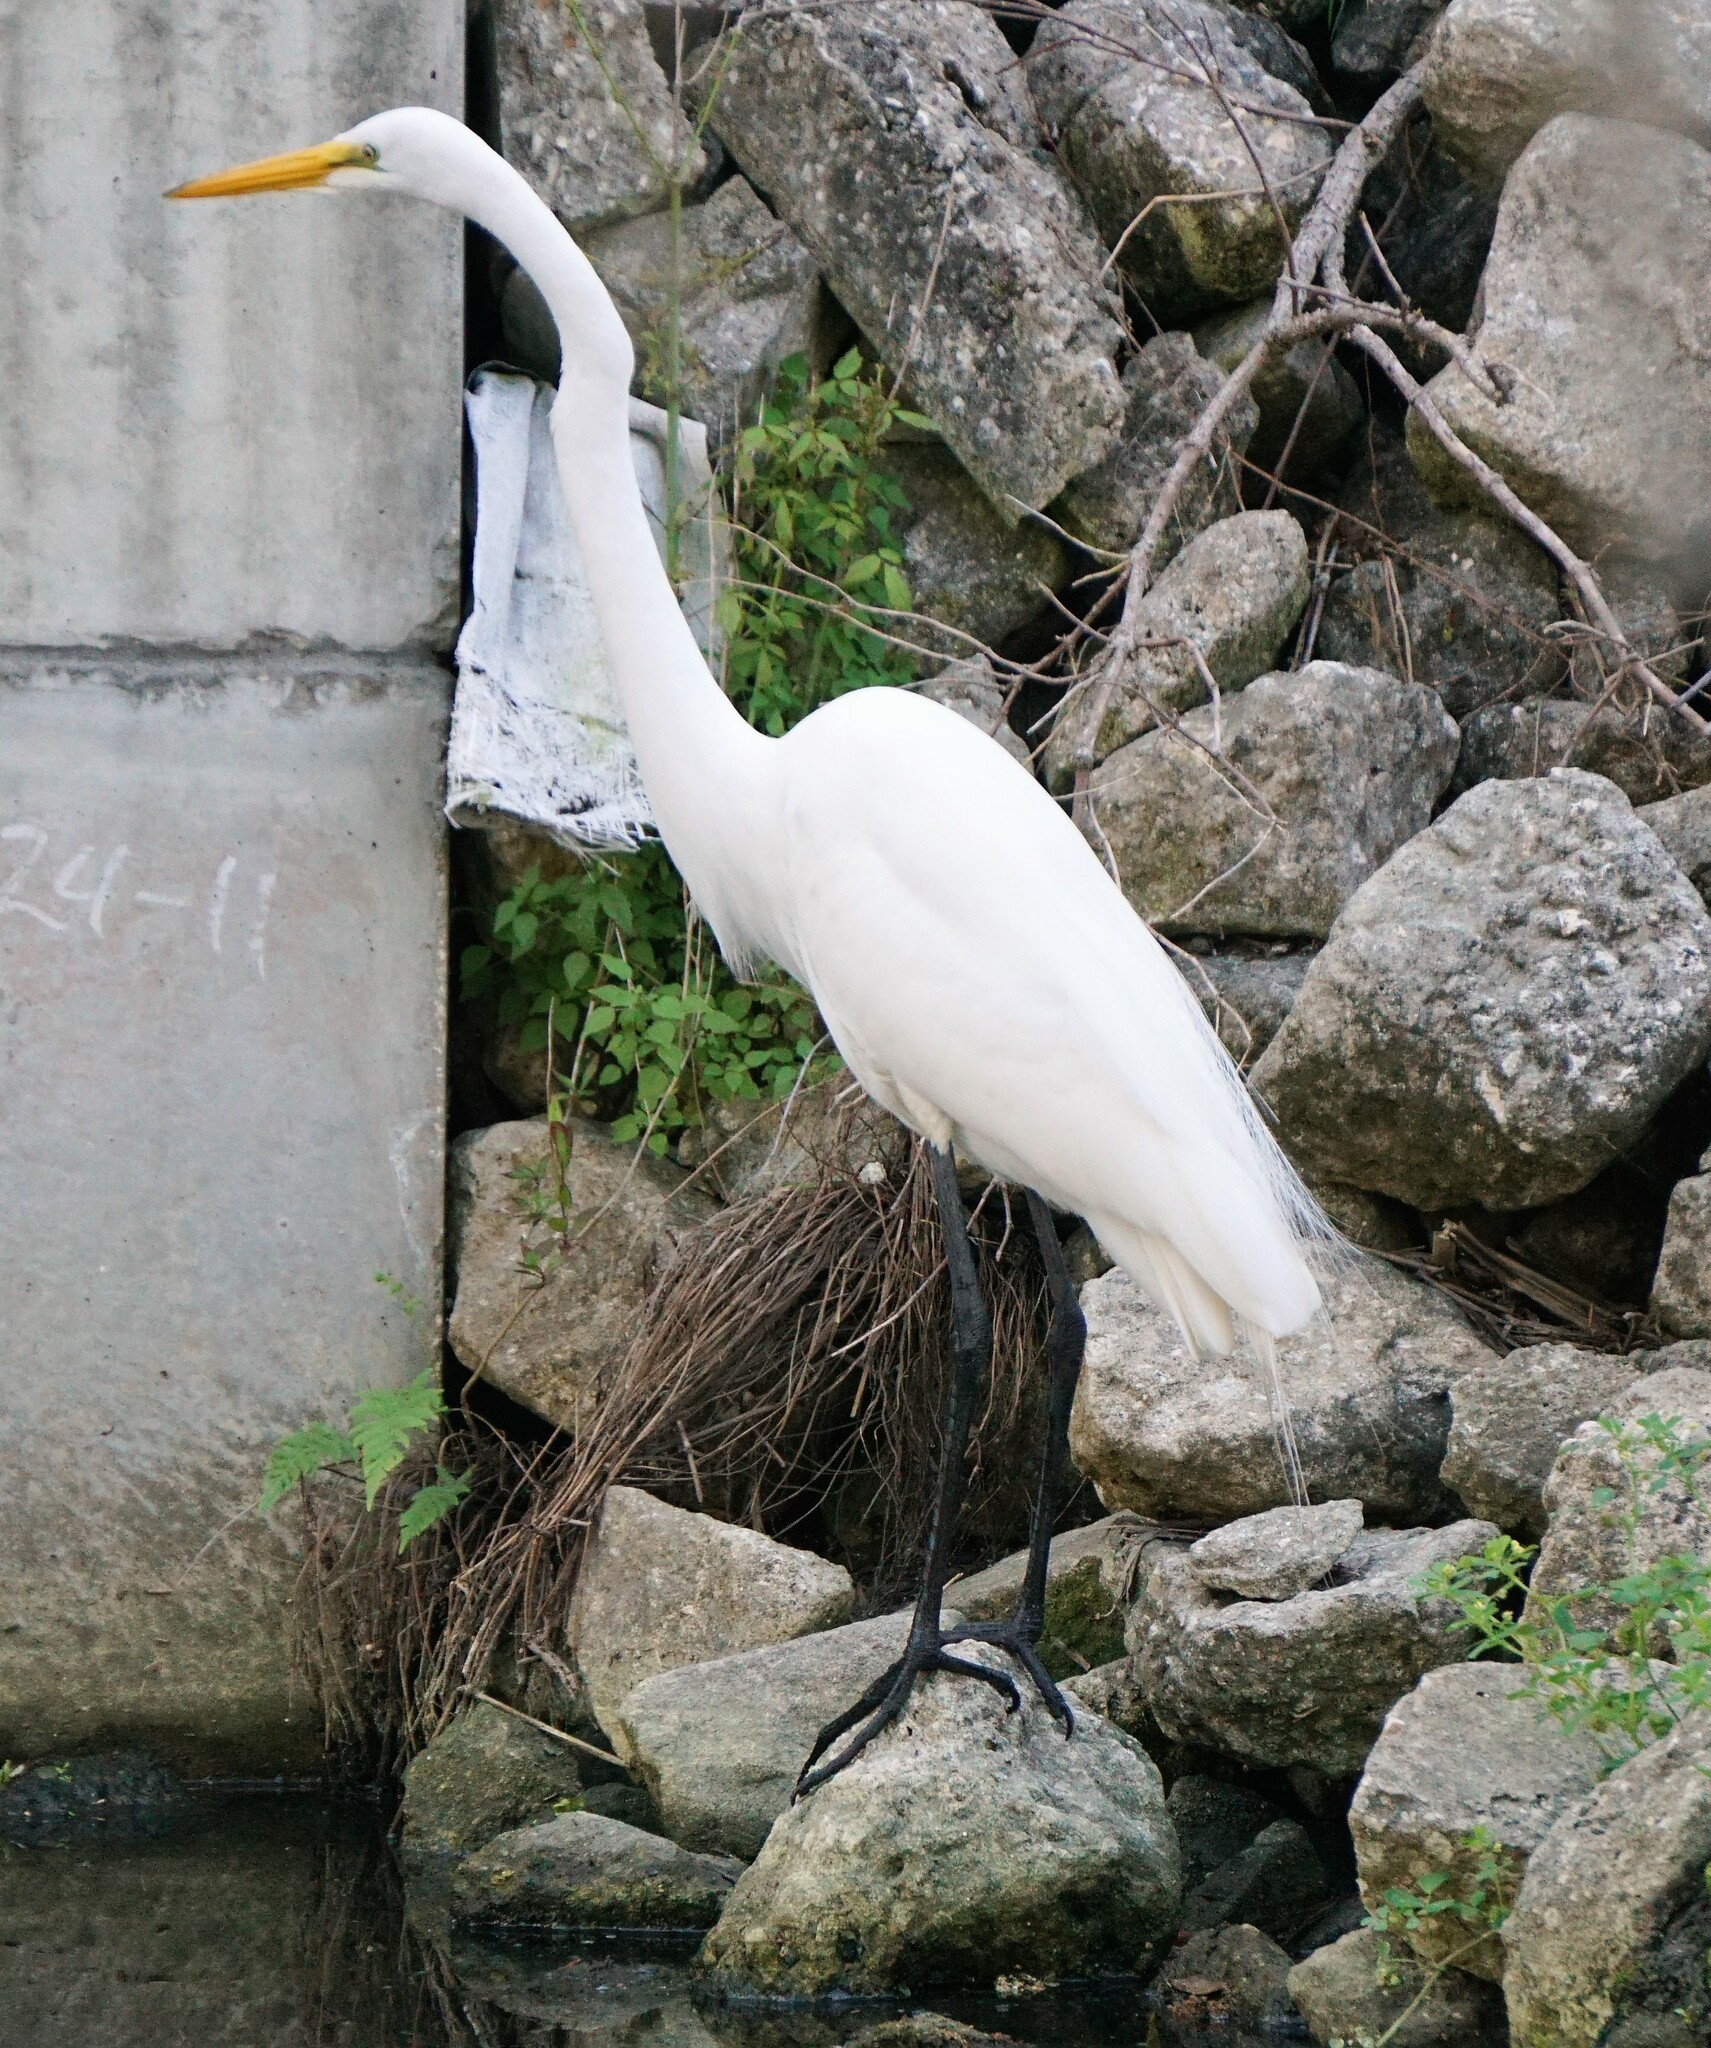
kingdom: Animalia
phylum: Chordata
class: Aves
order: Pelecaniformes
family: Ardeidae
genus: Ardea
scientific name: Ardea alba
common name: Great egret
